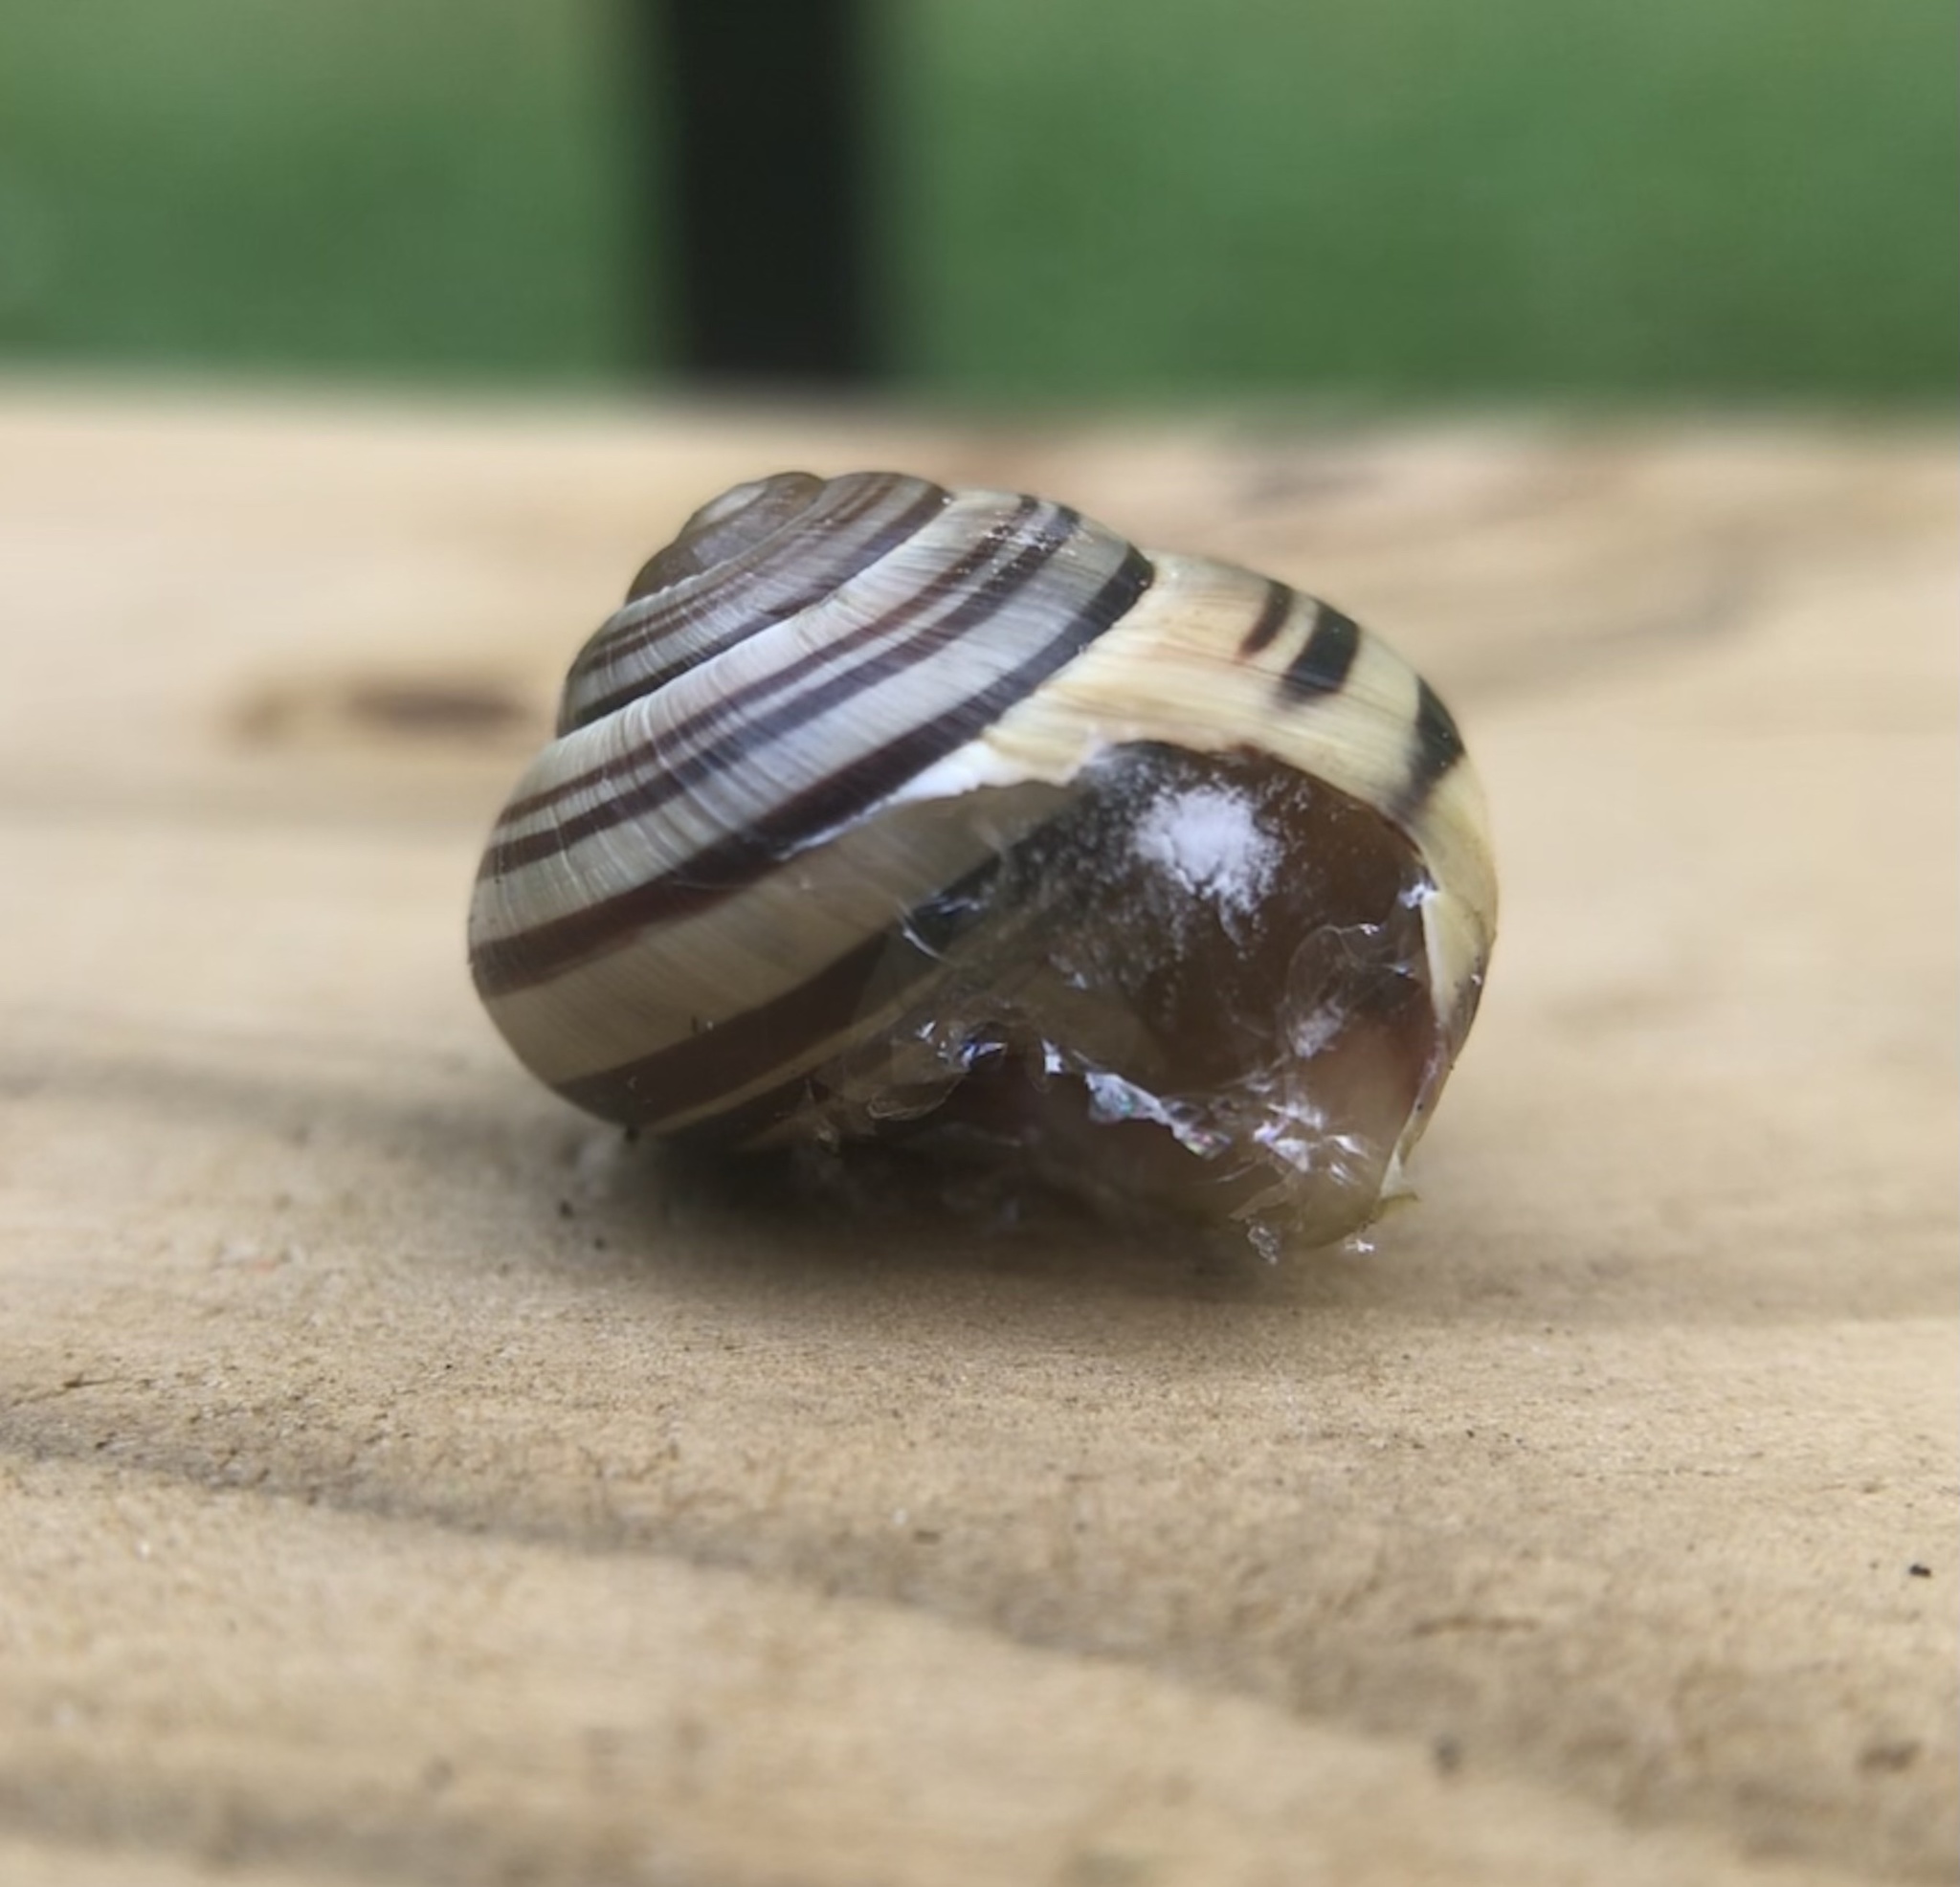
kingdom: Animalia
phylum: Mollusca
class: Gastropoda
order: Stylommatophora
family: Helicidae
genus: Cepaea
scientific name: Cepaea
